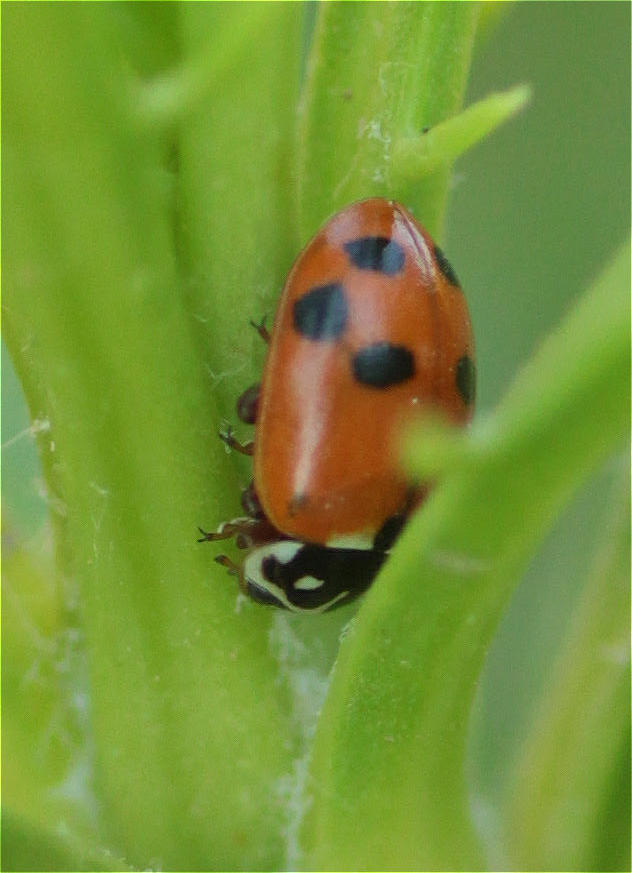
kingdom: Animalia
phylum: Arthropoda
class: Insecta
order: Coleoptera
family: Coccinellidae
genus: Hippodamia
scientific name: Hippodamia variegata
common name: Ladybird beetle
